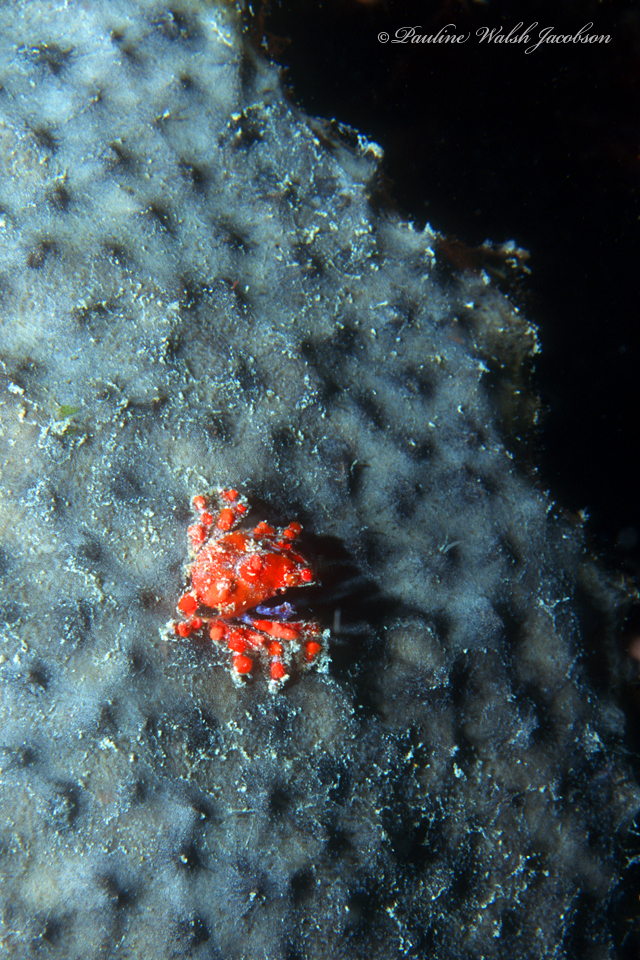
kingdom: Animalia
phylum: Arthropoda
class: Malacostraca
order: Decapoda
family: Epialtidae
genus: Pelia
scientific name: Pelia mutica
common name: Cryptic teardrop crab
